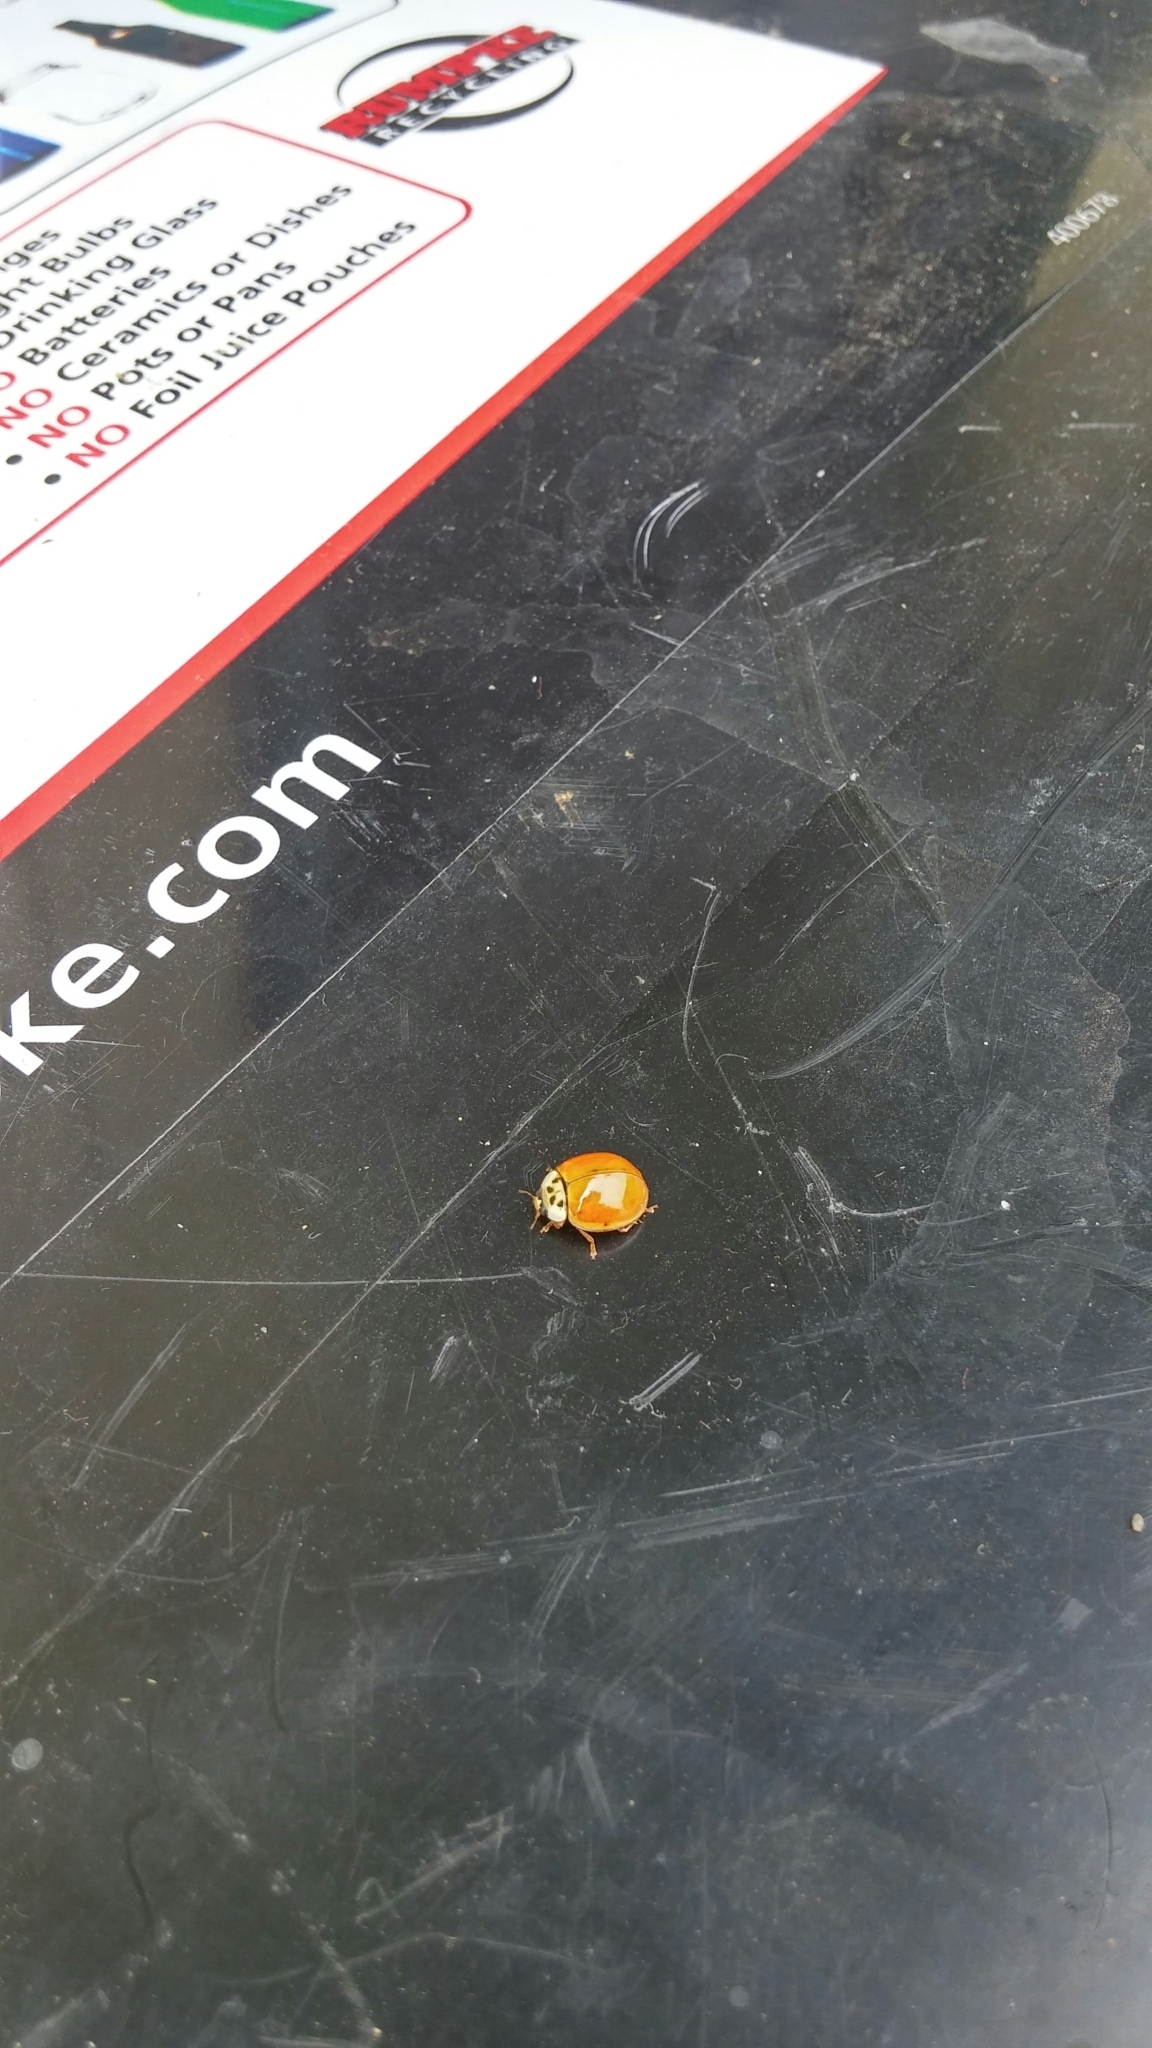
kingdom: Animalia
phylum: Arthropoda
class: Insecta
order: Coleoptera
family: Coccinellidae
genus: Harmonia
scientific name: Harmonia axyridis
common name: Harlequin ladybird
